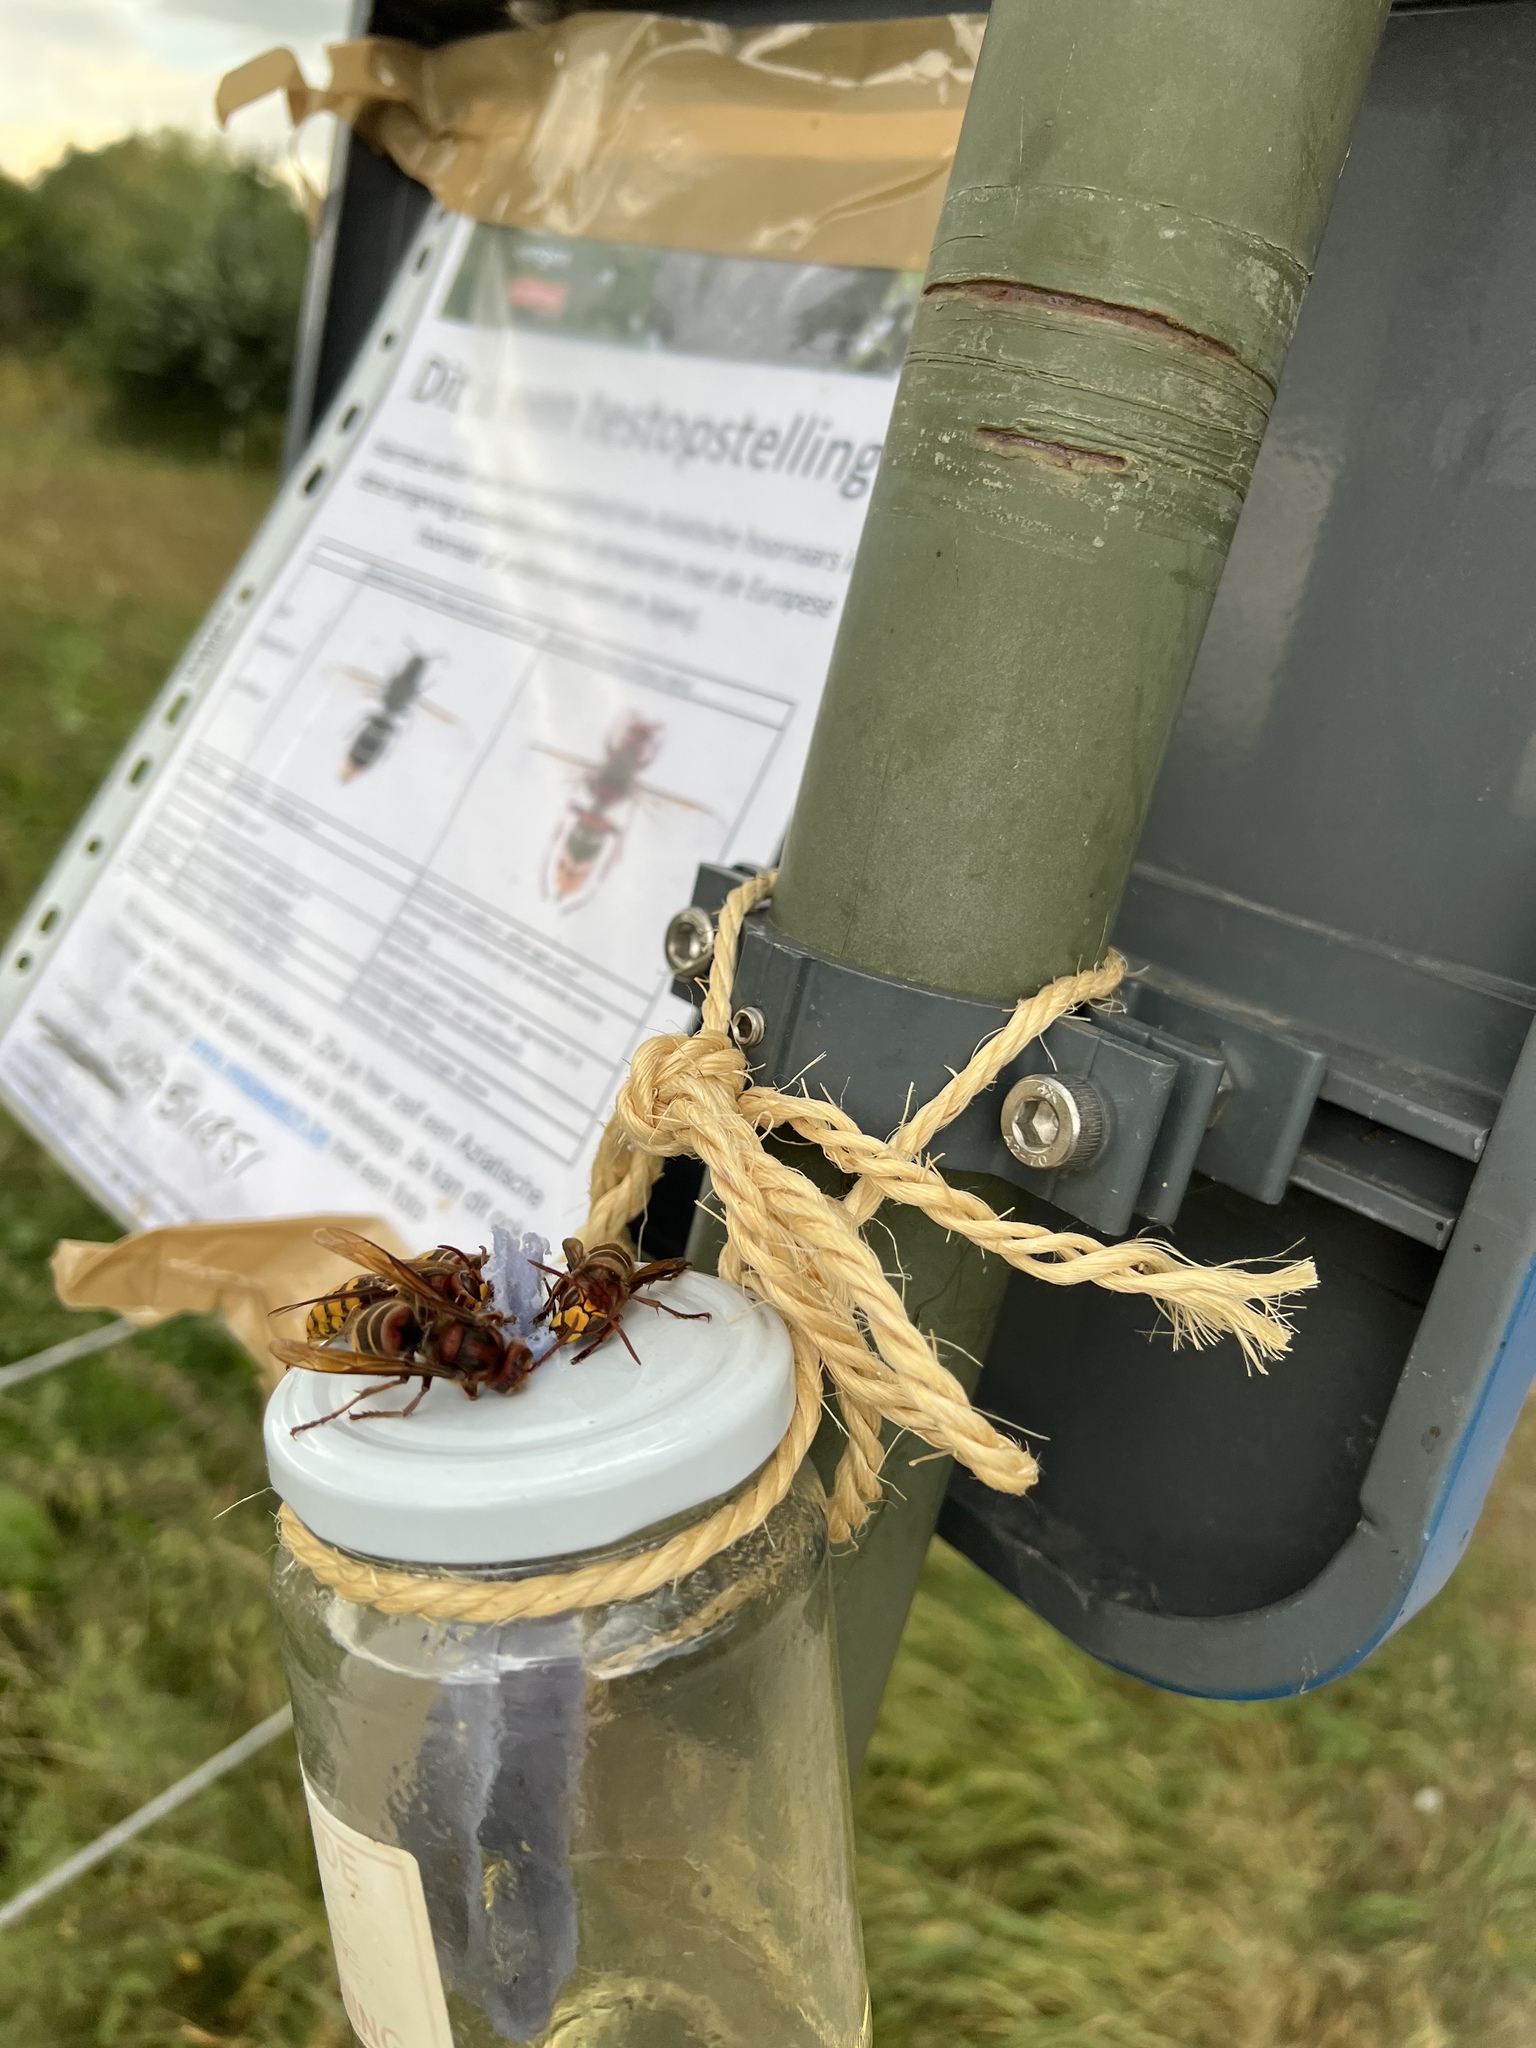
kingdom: Animalia
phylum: Arthropoda
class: Insecta
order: Hymenoptera
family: Vespidae
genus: Vespa
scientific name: Vespa crabro
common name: Hornet
